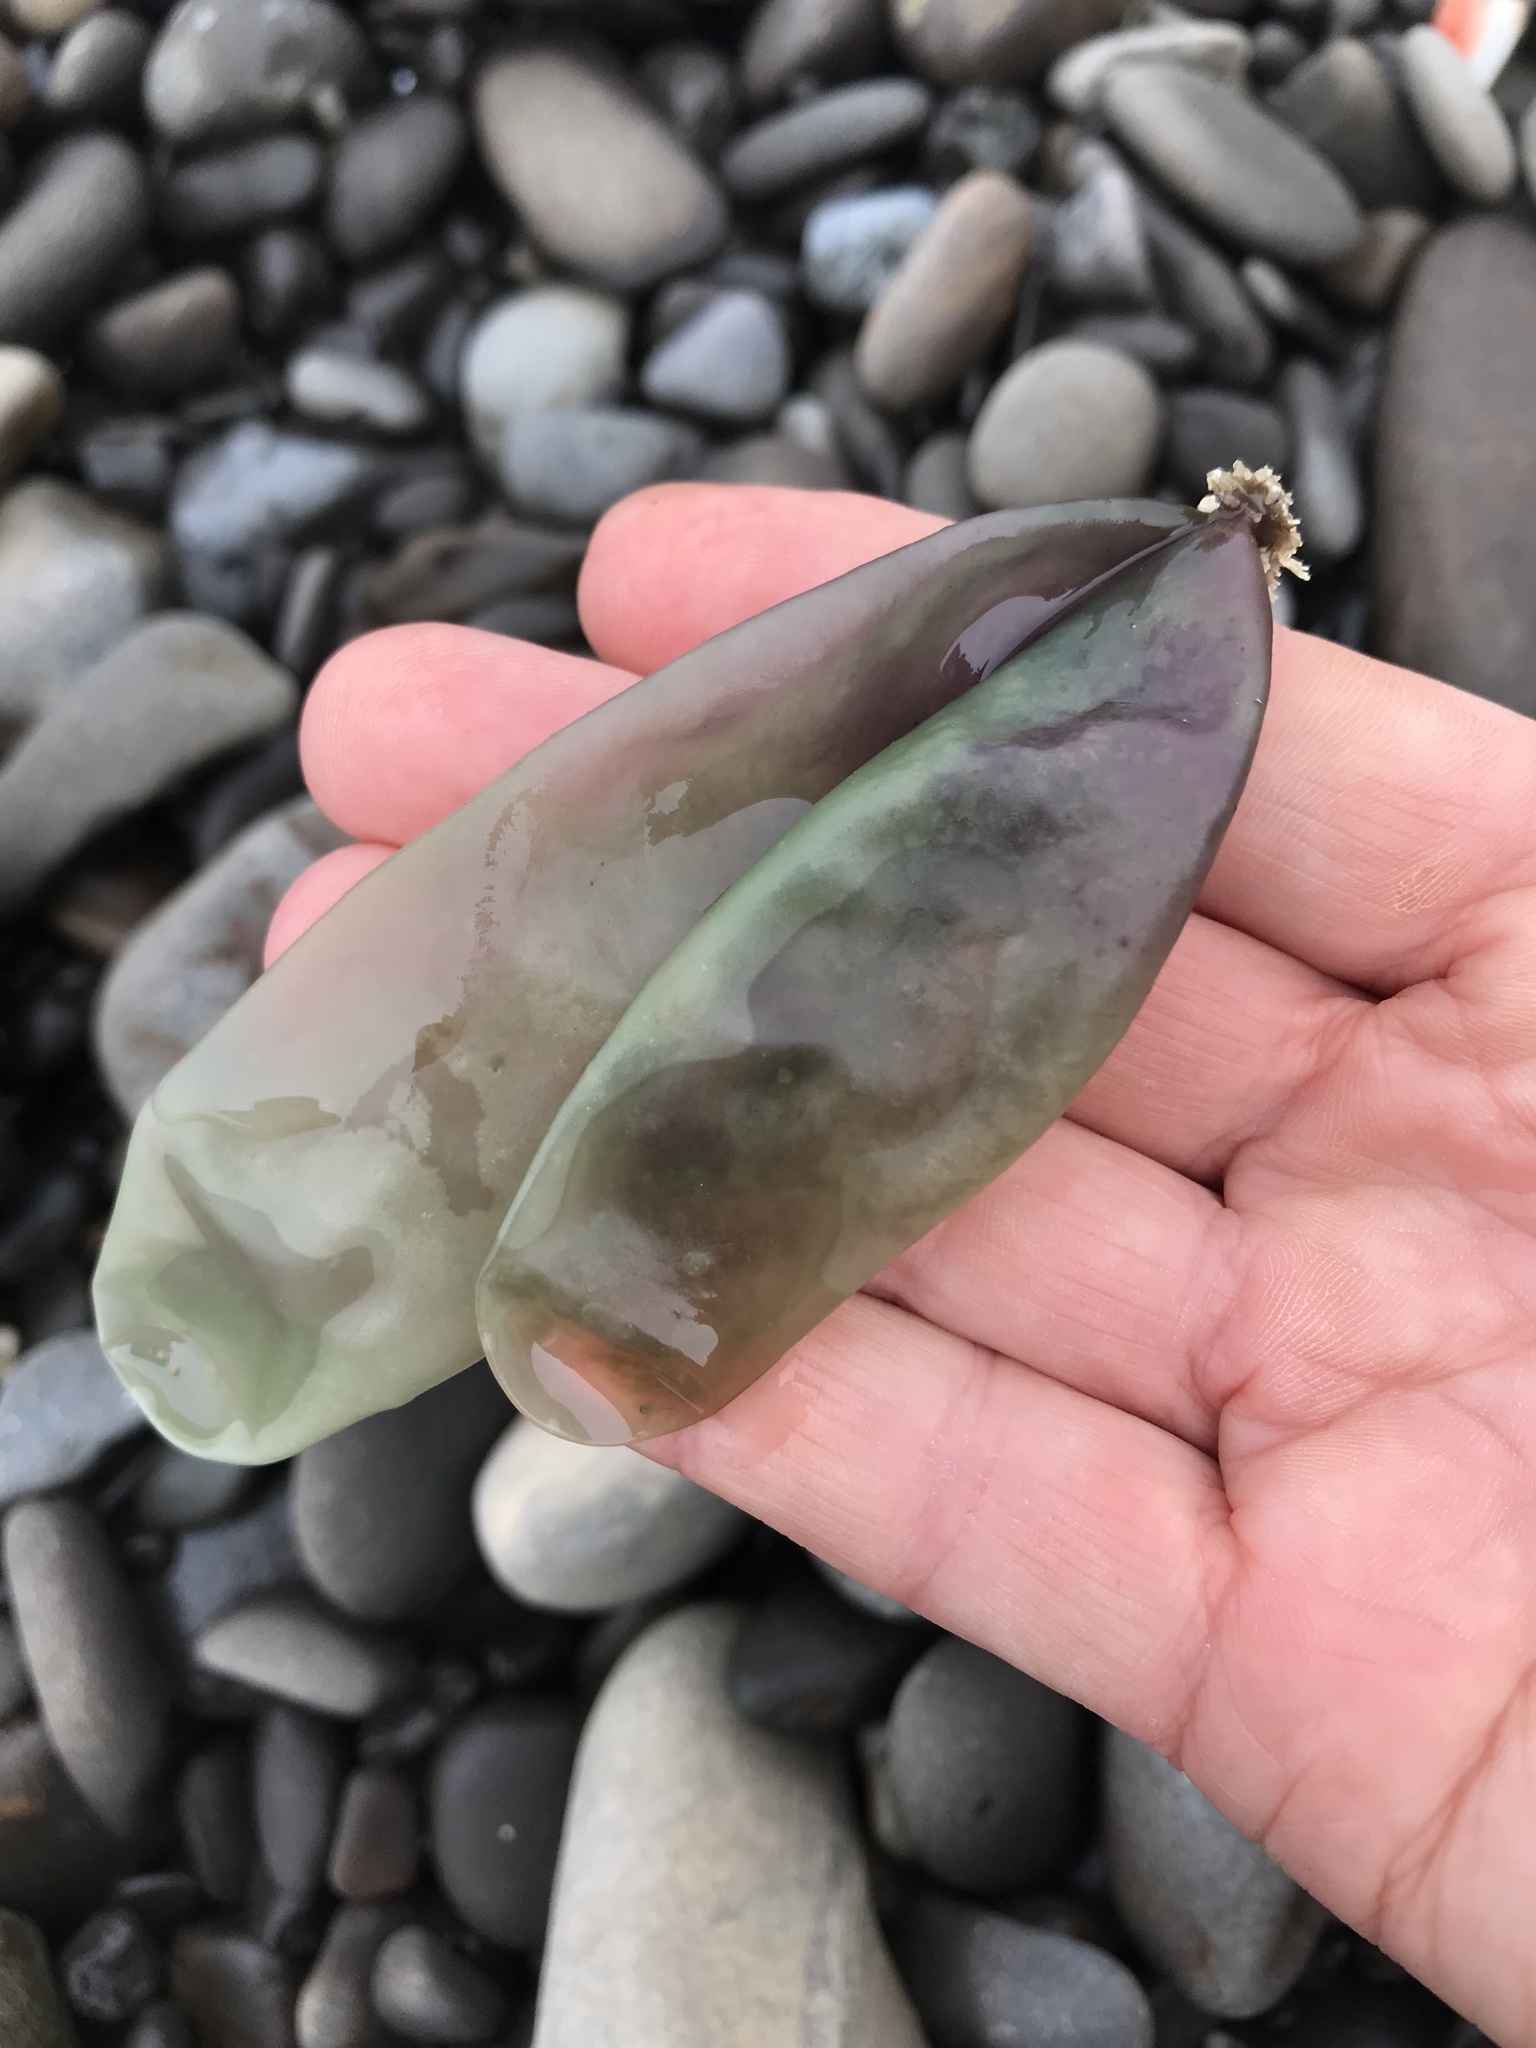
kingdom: Plantae
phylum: Rhodophyta
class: Florideophyceae
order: Palmariales
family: Palmariaceae
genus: Halosaccion
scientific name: Halosaccion glandiforme
